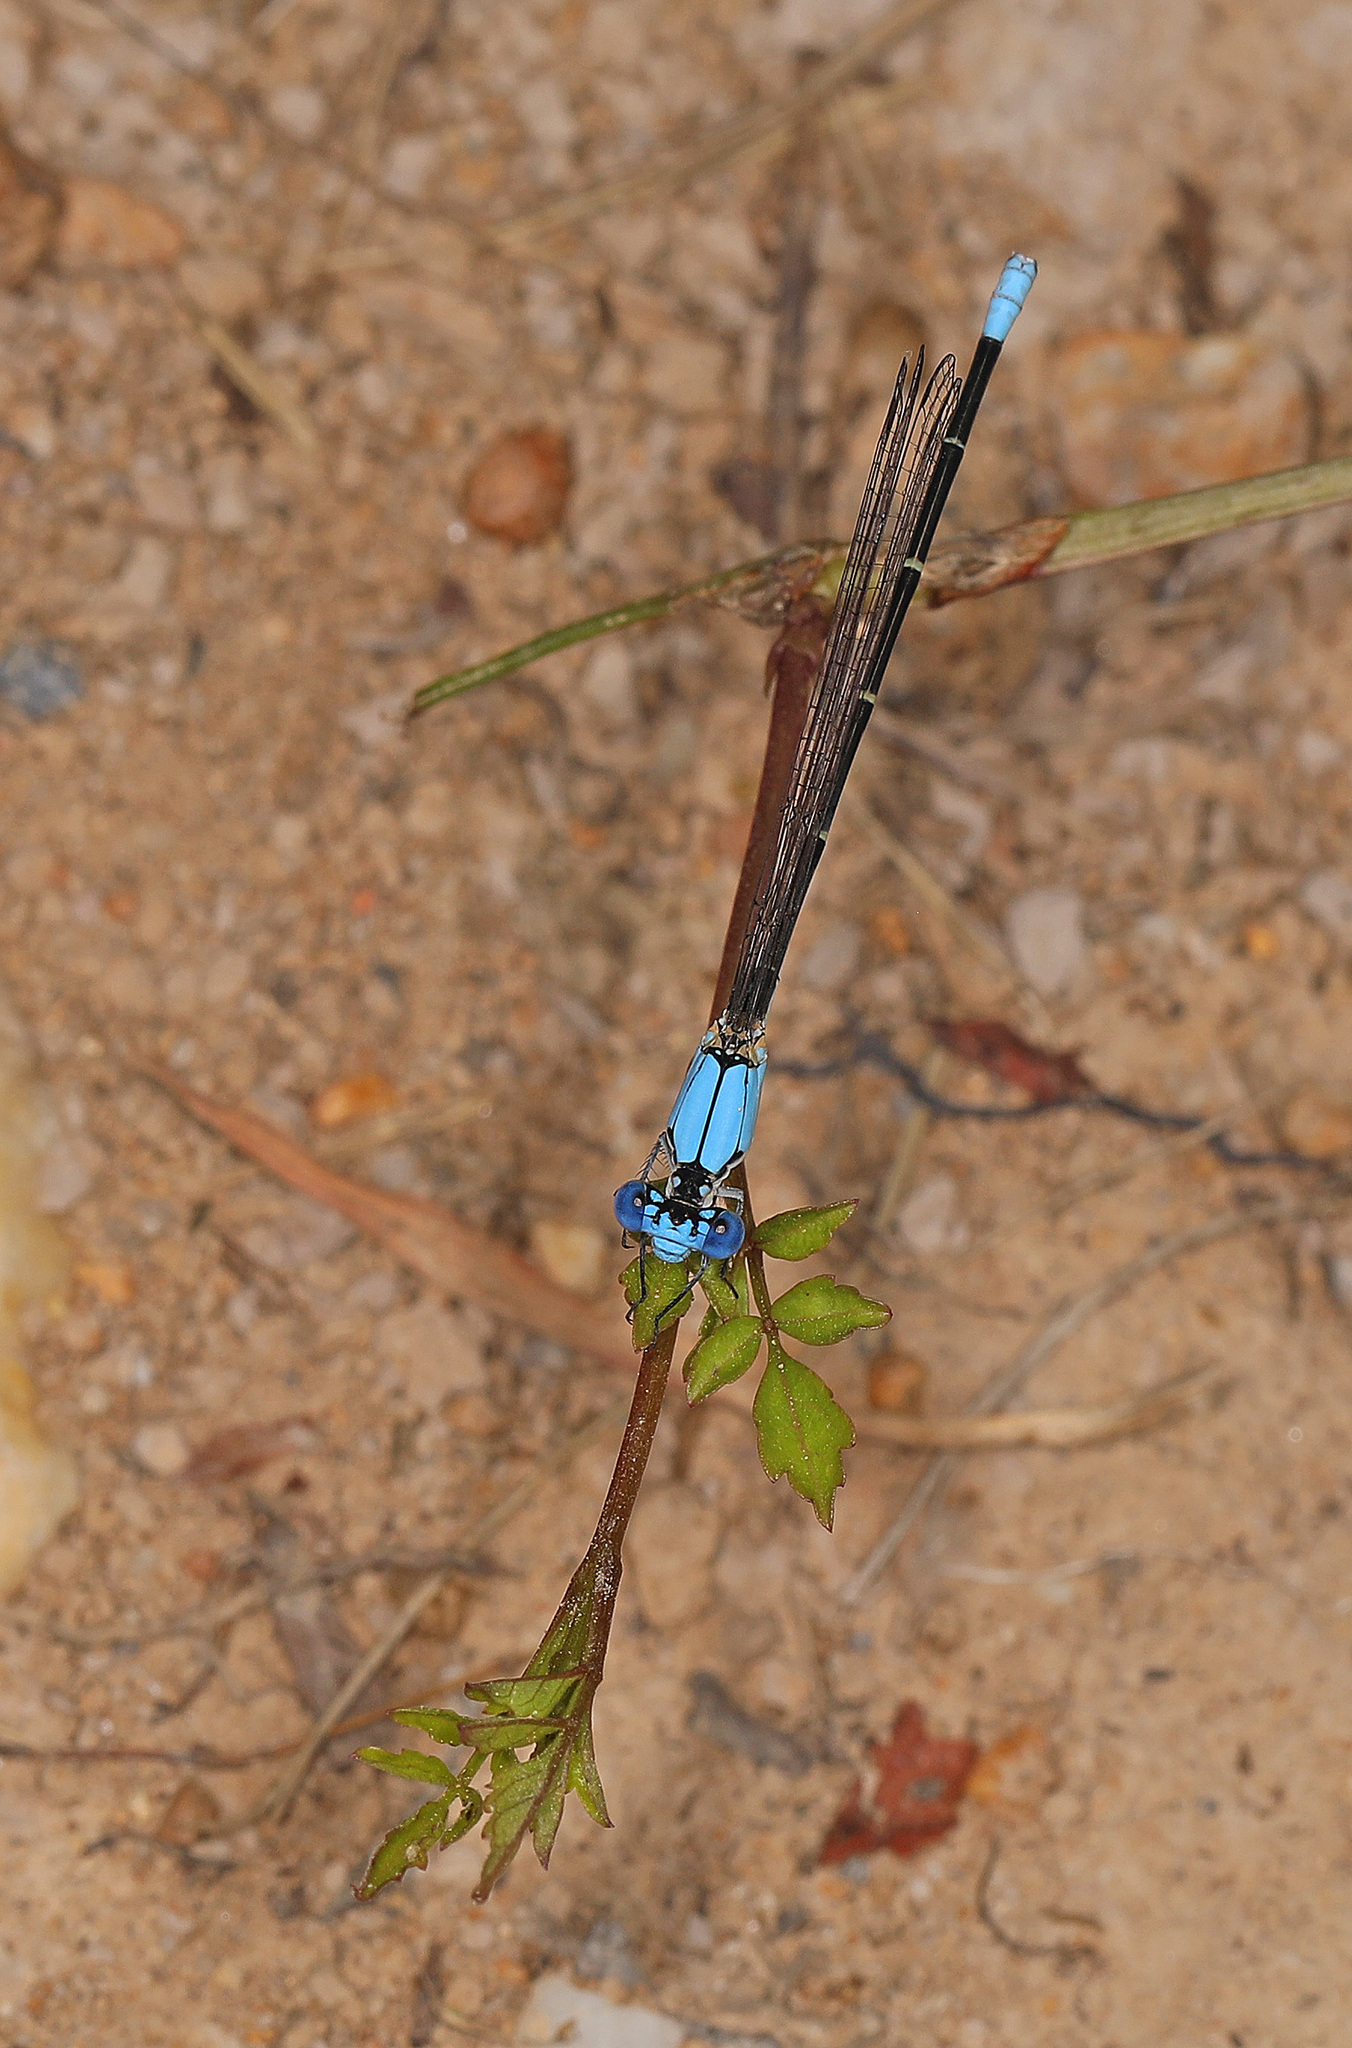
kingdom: Animalia
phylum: Arthropoda
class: Insecta
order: Odonata
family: Coenagrionidae
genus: Argia
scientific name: Argia apicalis
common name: Blue-fronted dancer
